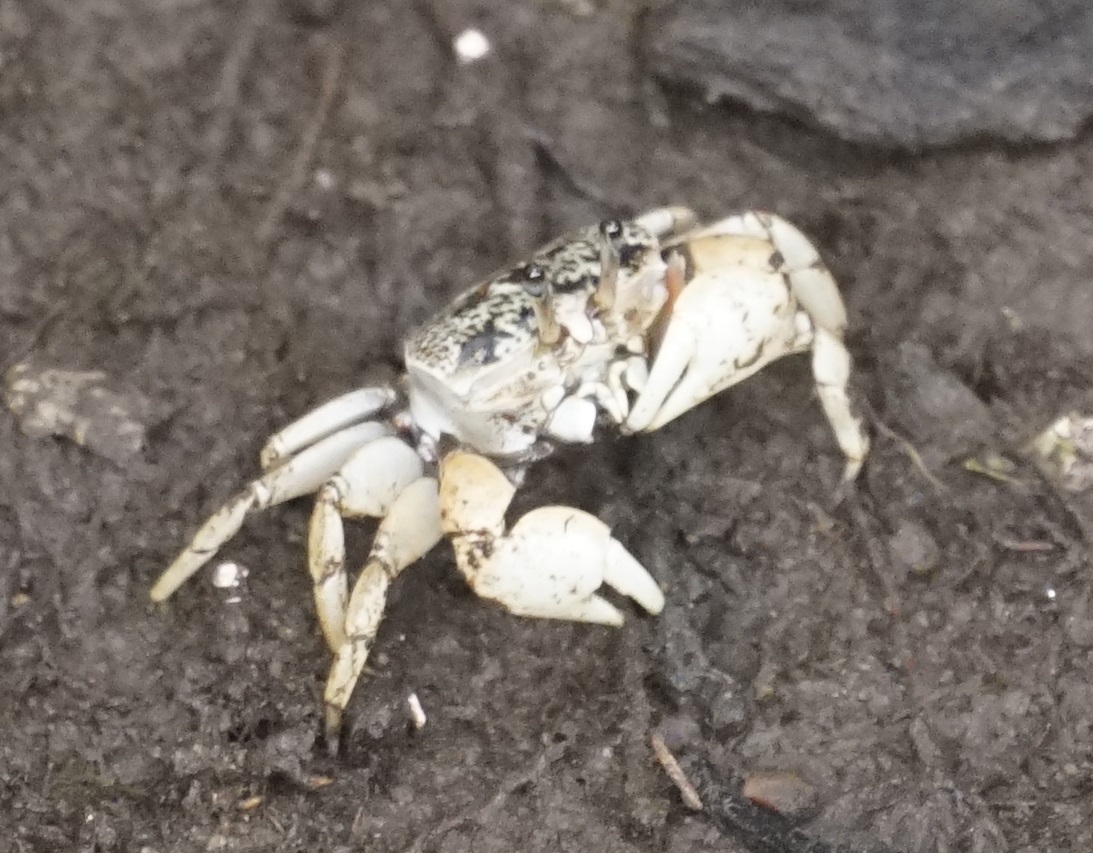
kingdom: Animalia
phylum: Arthropoda
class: Malacostraca
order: Decapoda
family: Heloeciidae
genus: Heloecius
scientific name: Heloecius cordiformis
